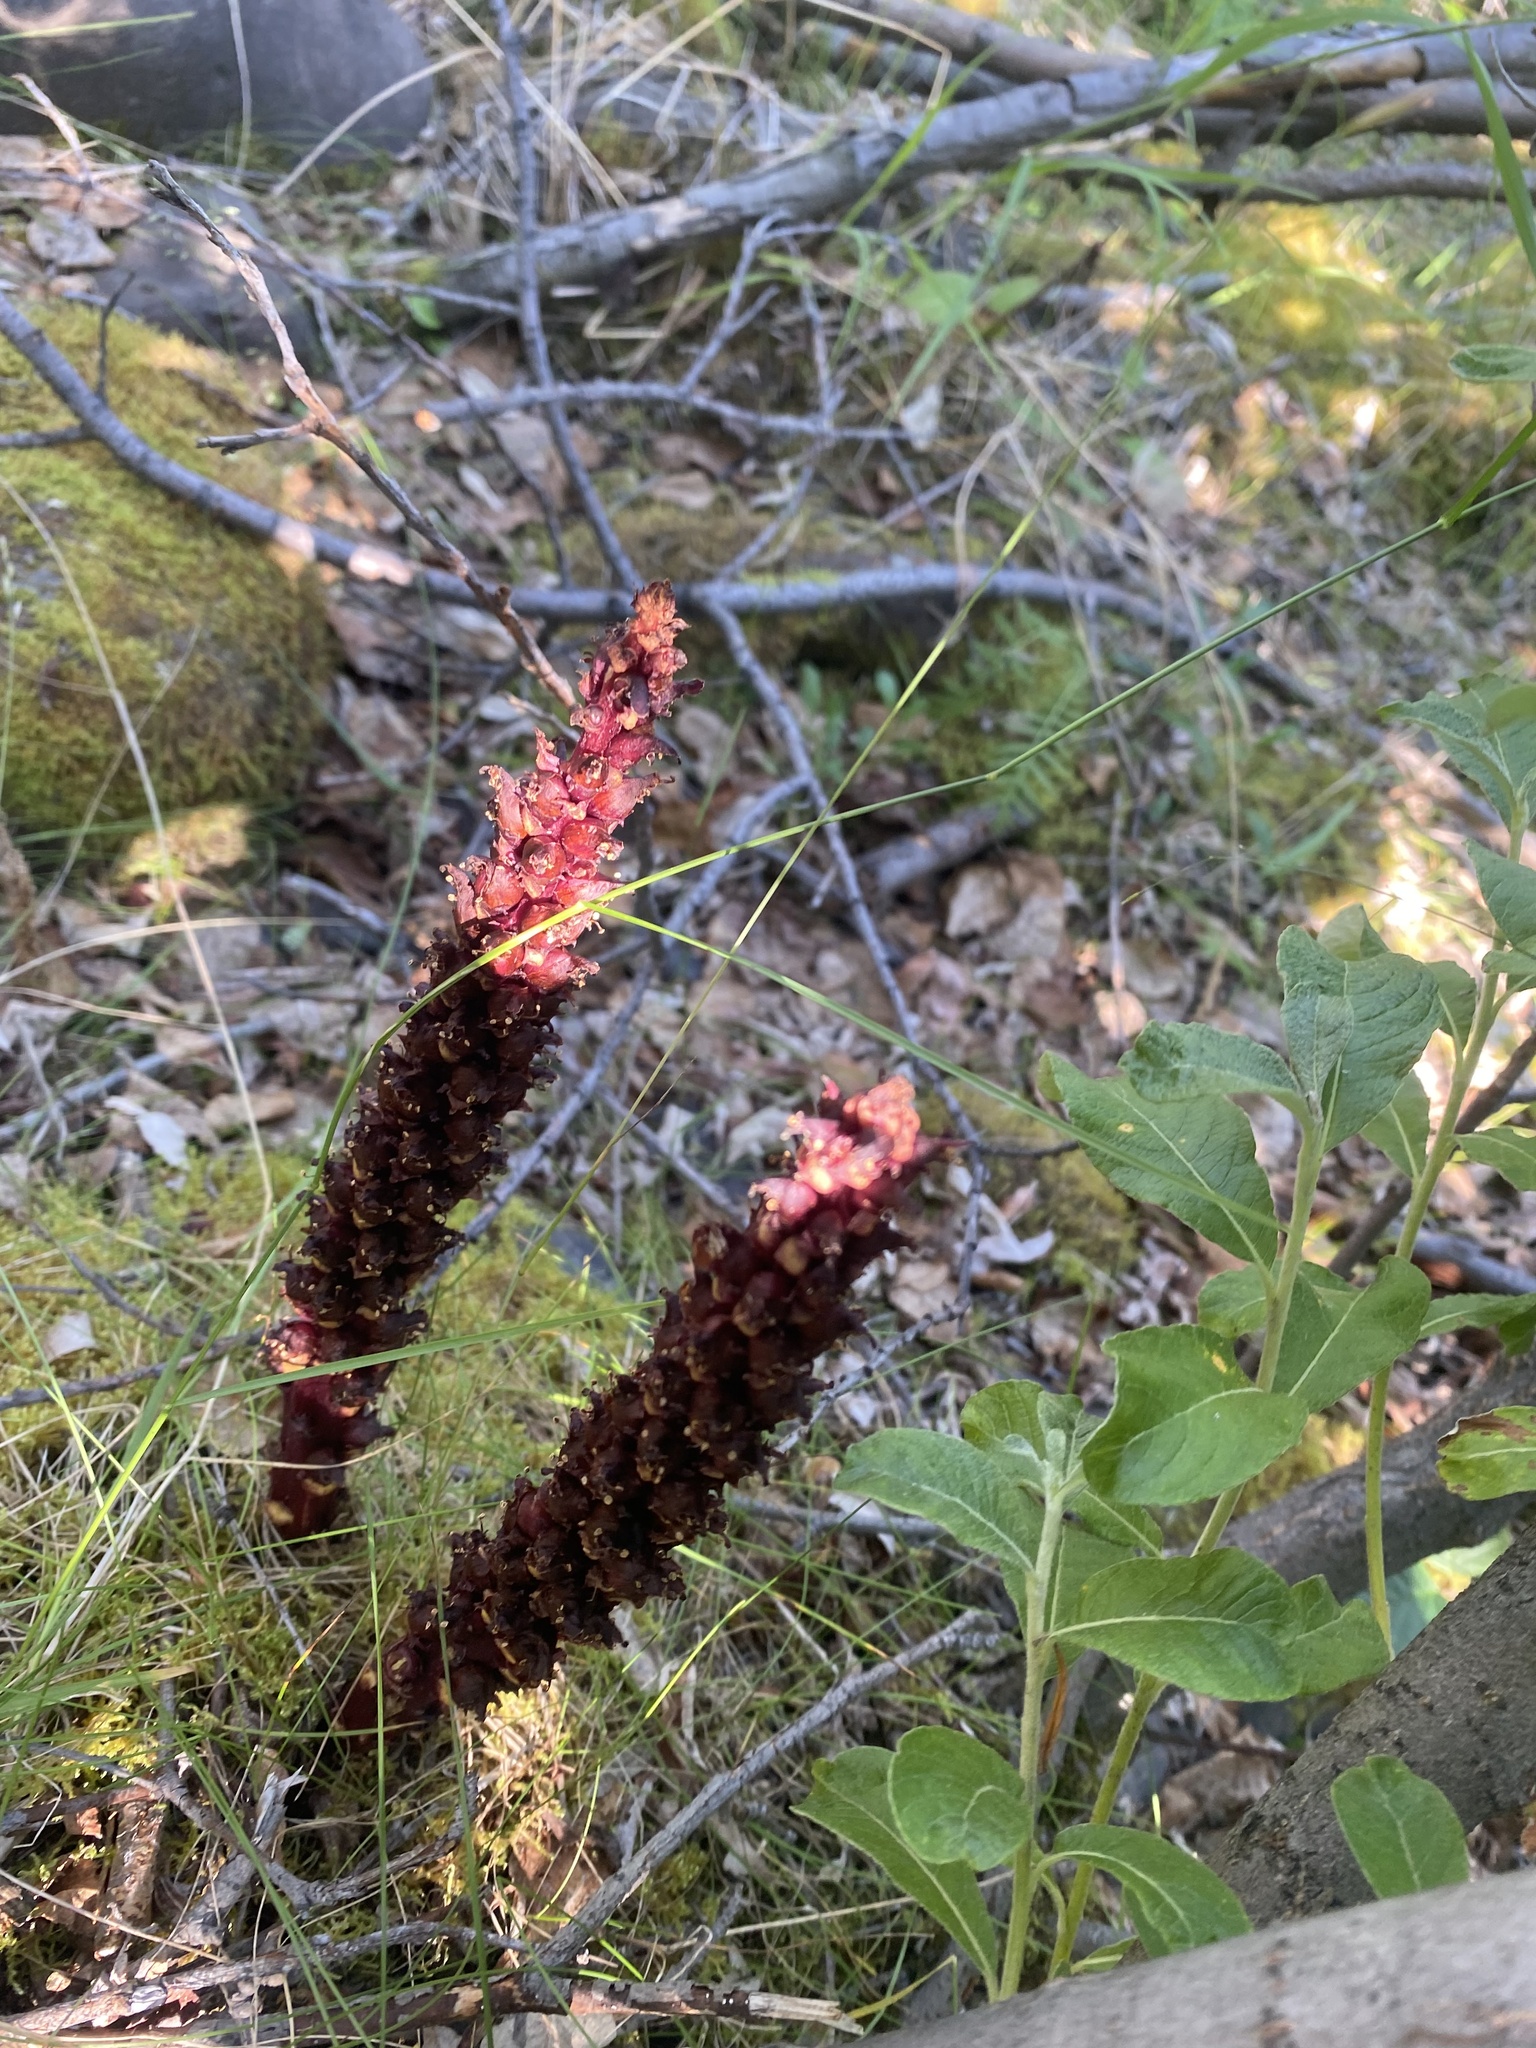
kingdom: Plantae
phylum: Tracheophyta
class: Magnoliopsida
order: Lamiales
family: Orobanchaceae
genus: Boschniakia
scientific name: Boschniakia rossica
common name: Poque
